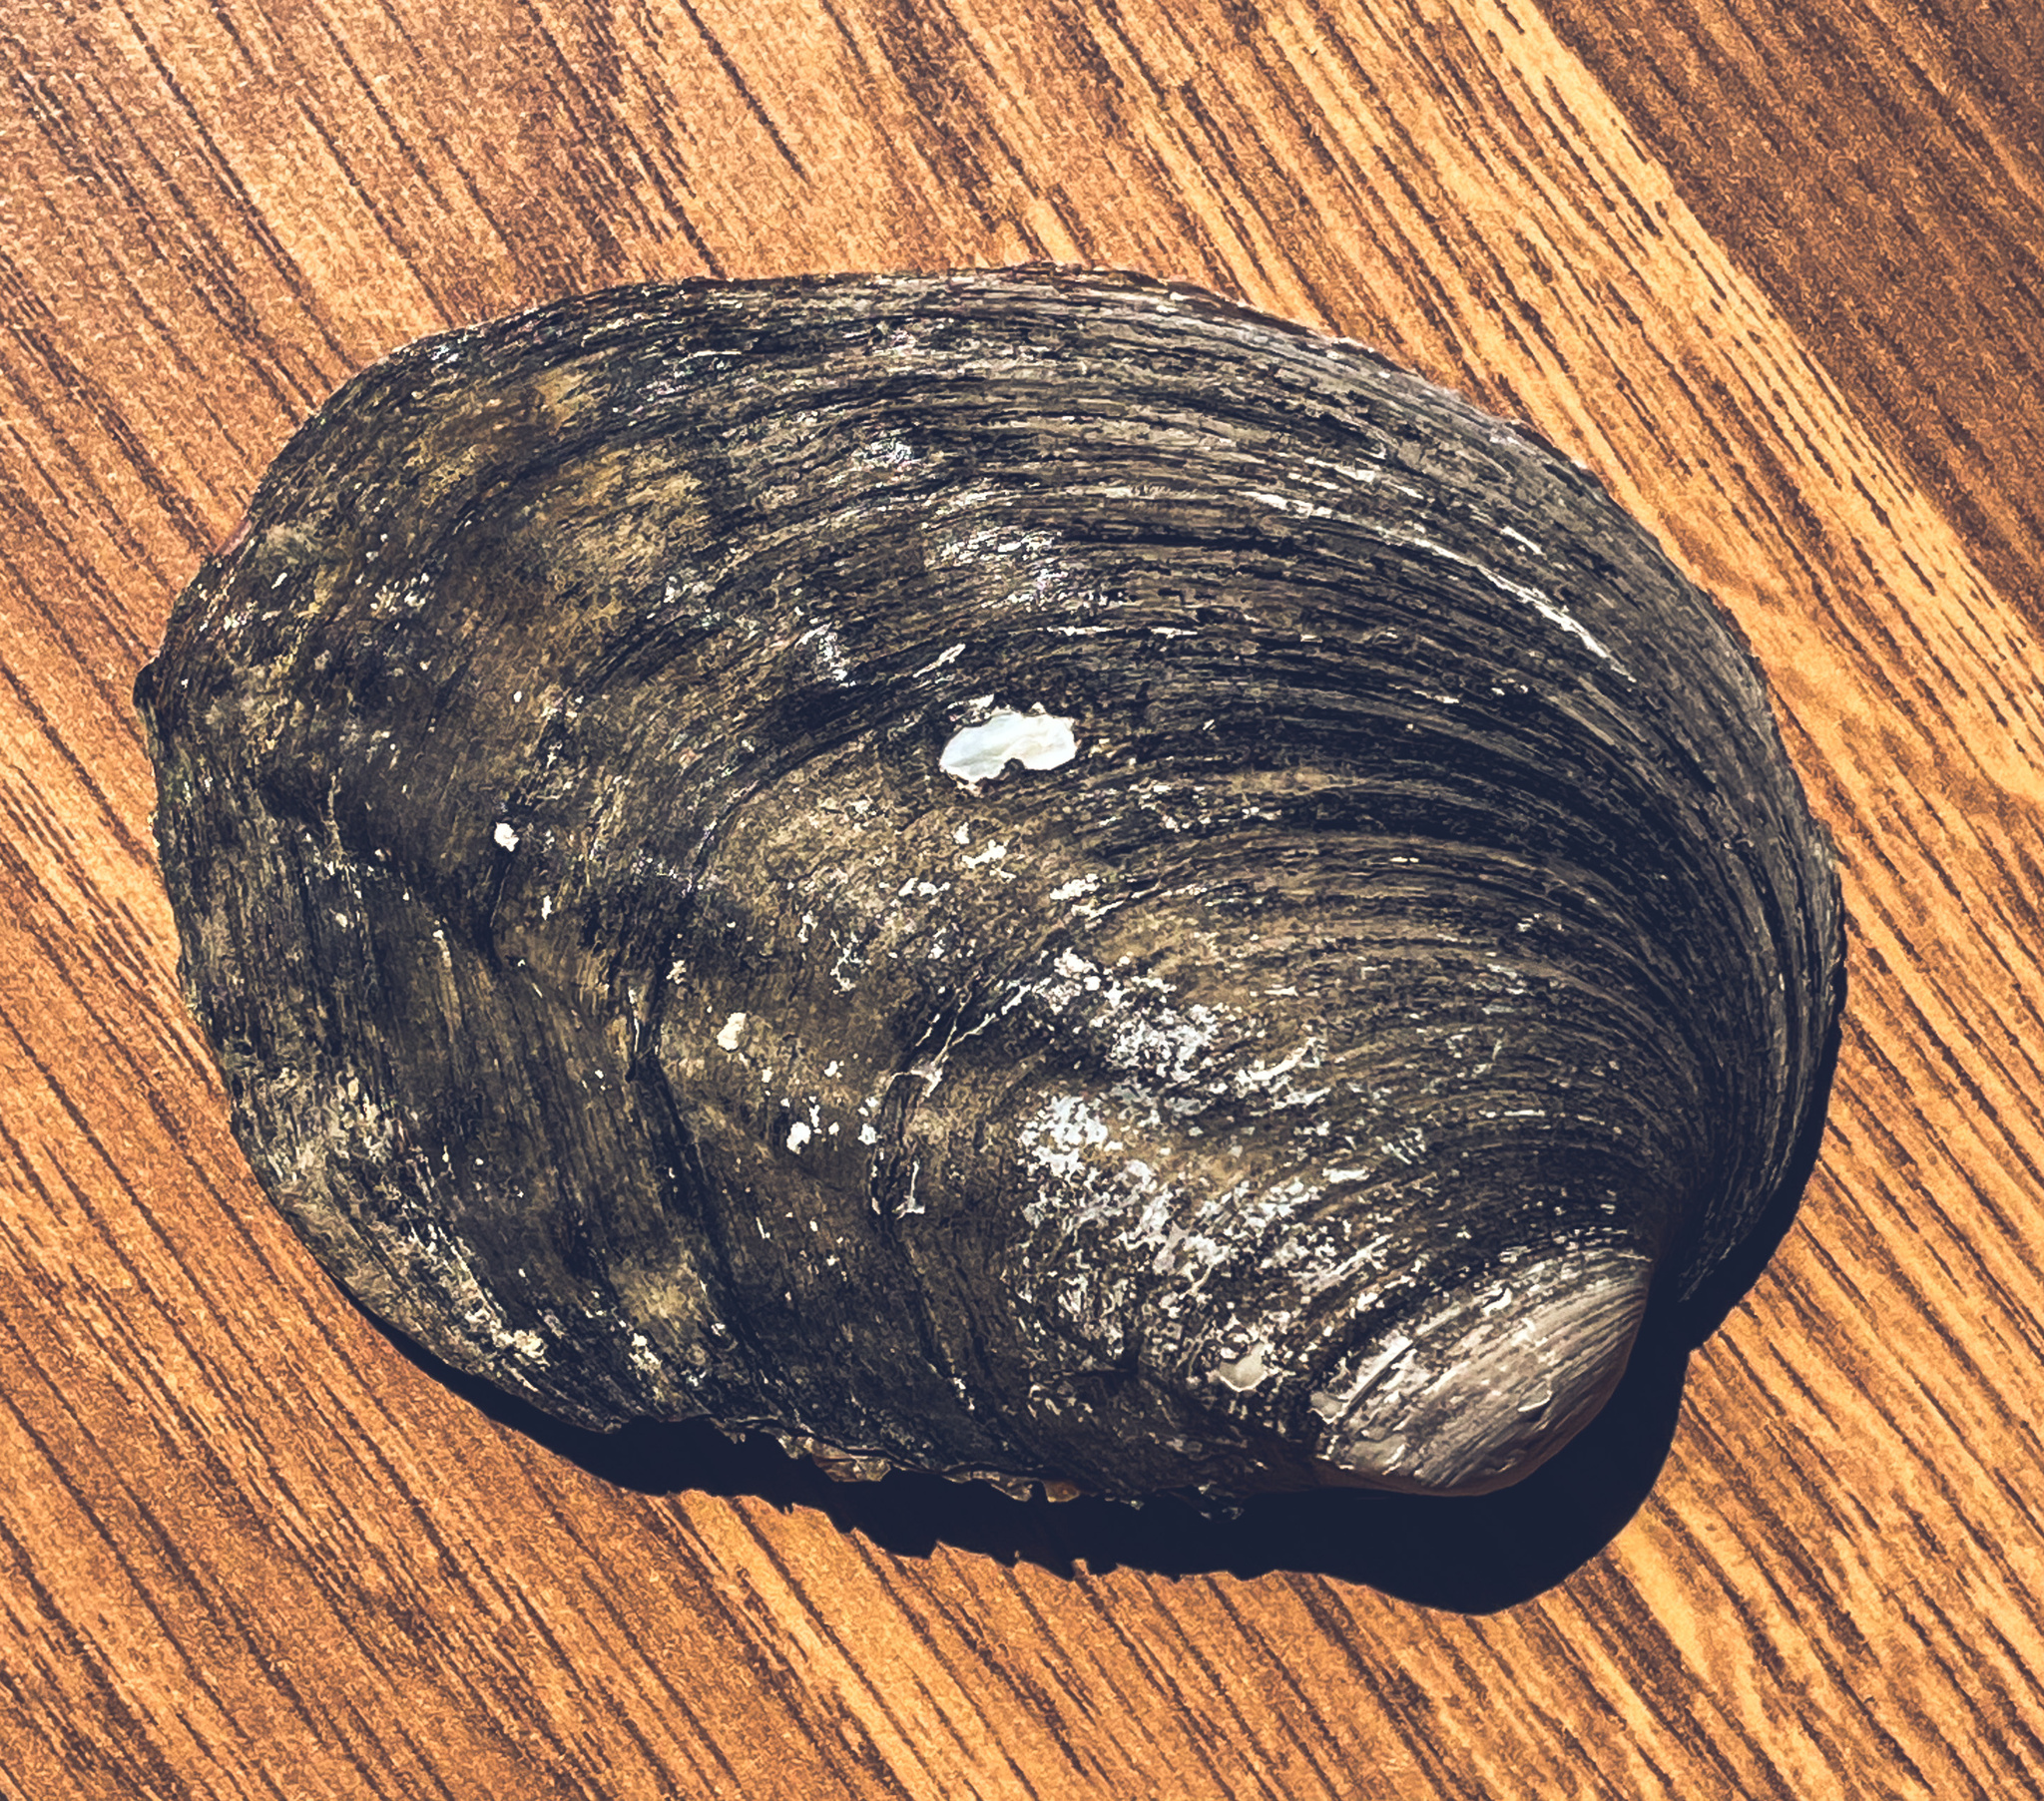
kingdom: Animalia
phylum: Mollusca
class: Bivalvia
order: Unionida
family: Unionidae
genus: Amblema
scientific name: Amblema plicata
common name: Threeridge
